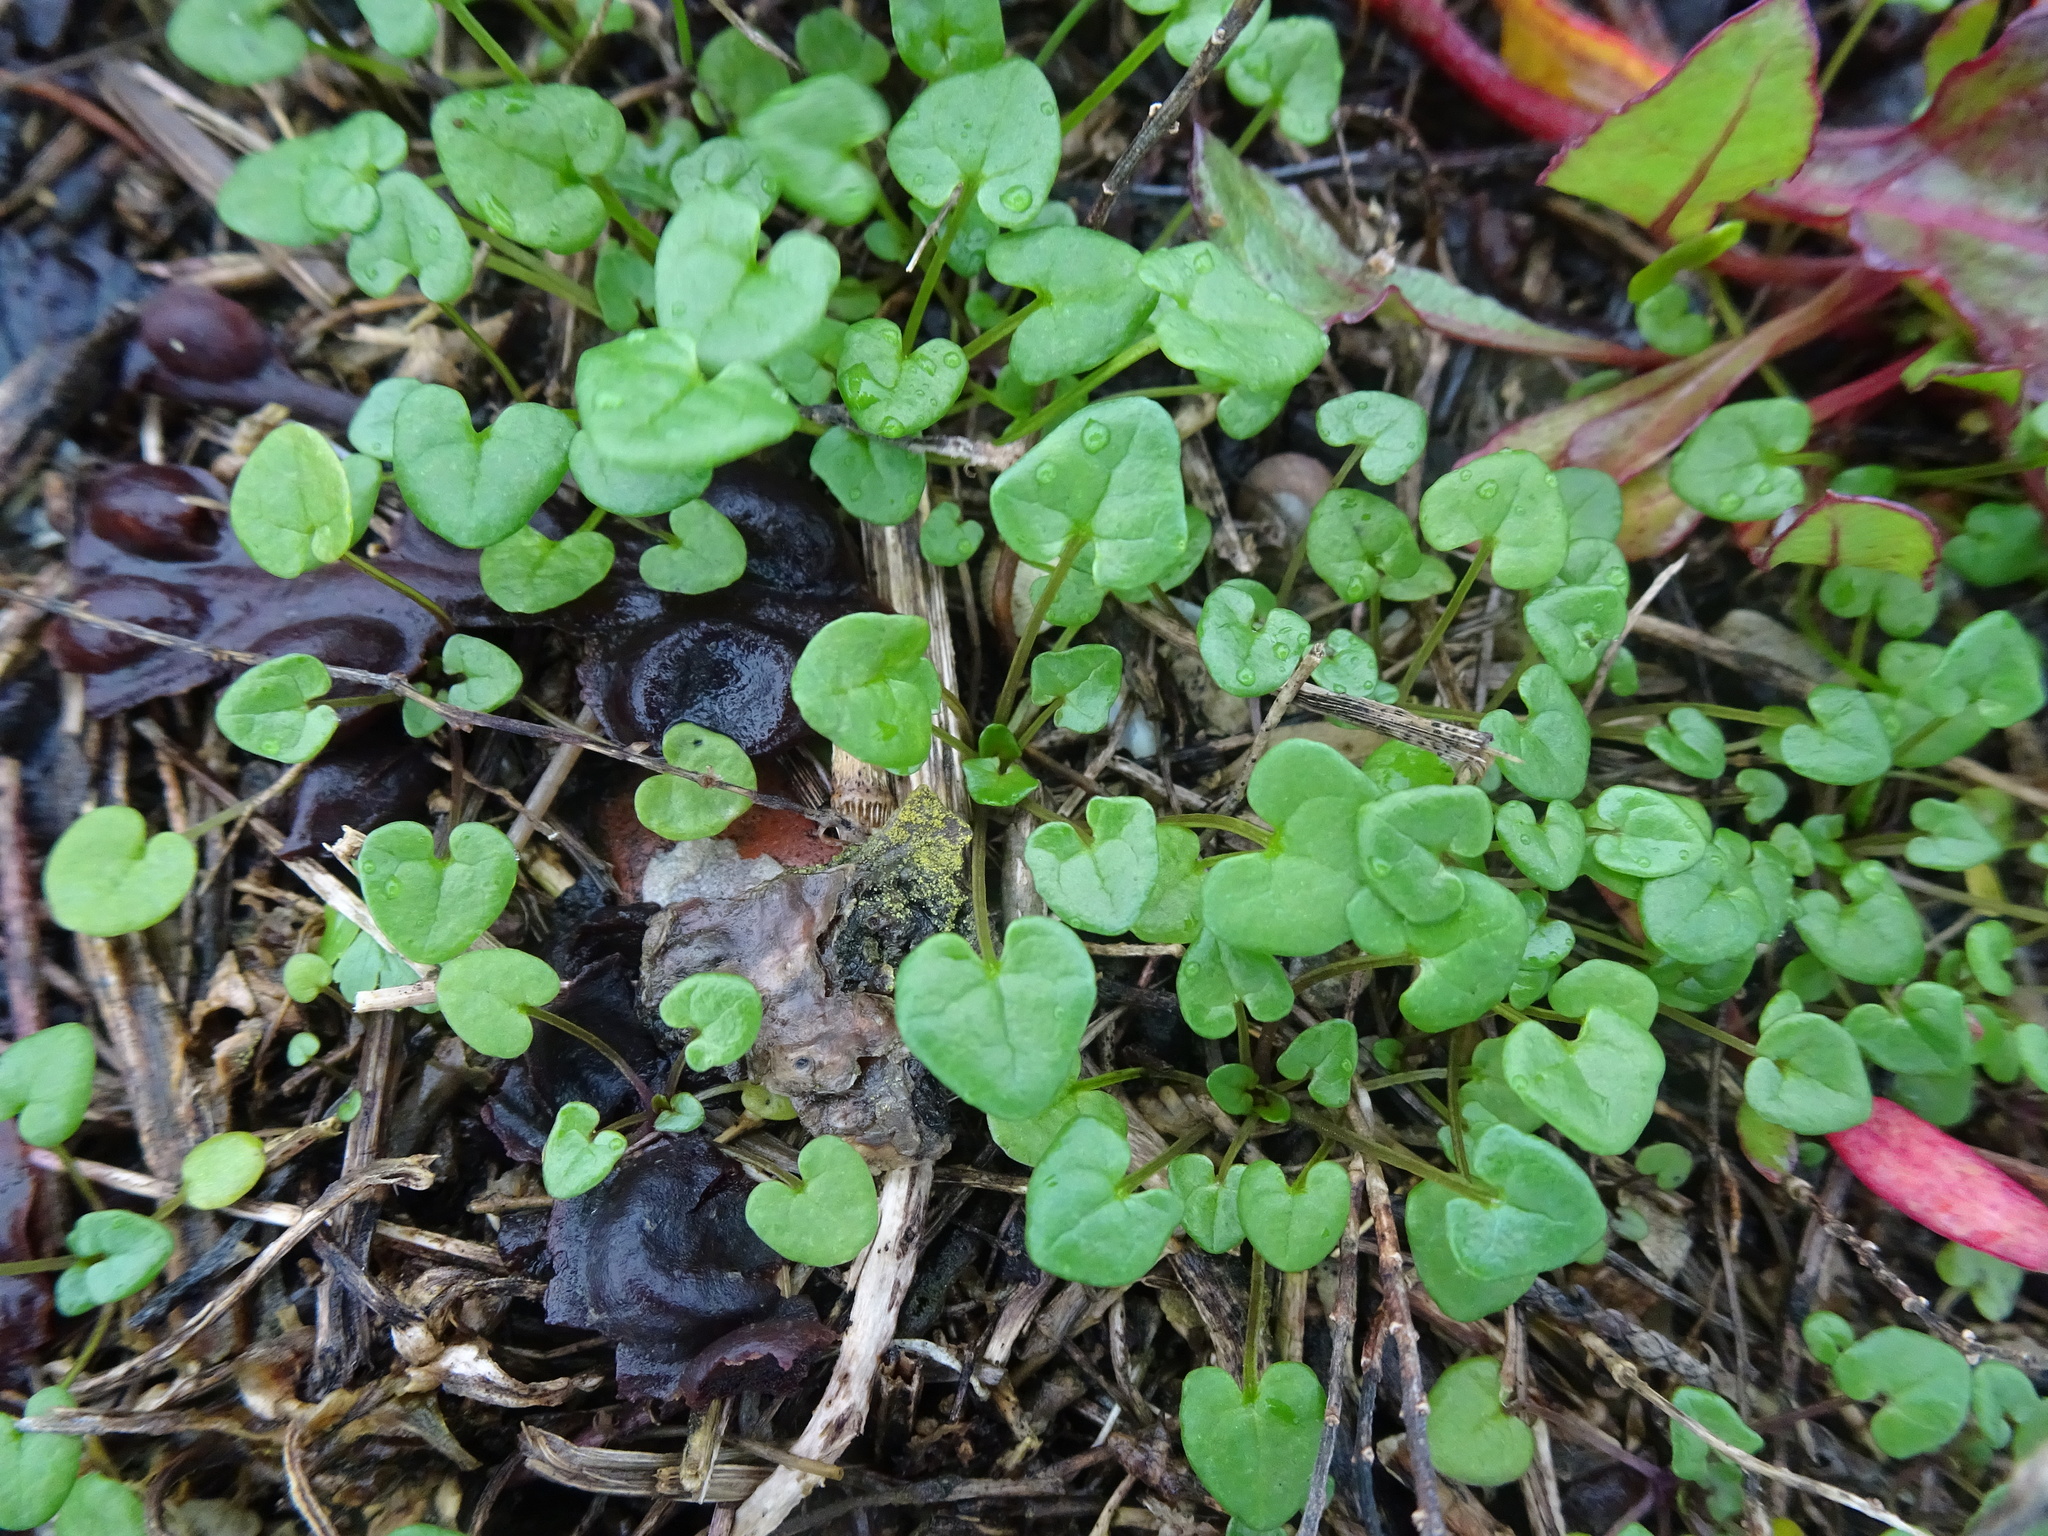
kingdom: Plantae
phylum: Tracheophyta
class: Magnoliopsida
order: Brassicales
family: Brassicaceae
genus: Cochlearia
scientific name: Cochlearia danica
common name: Early scurvygrass
